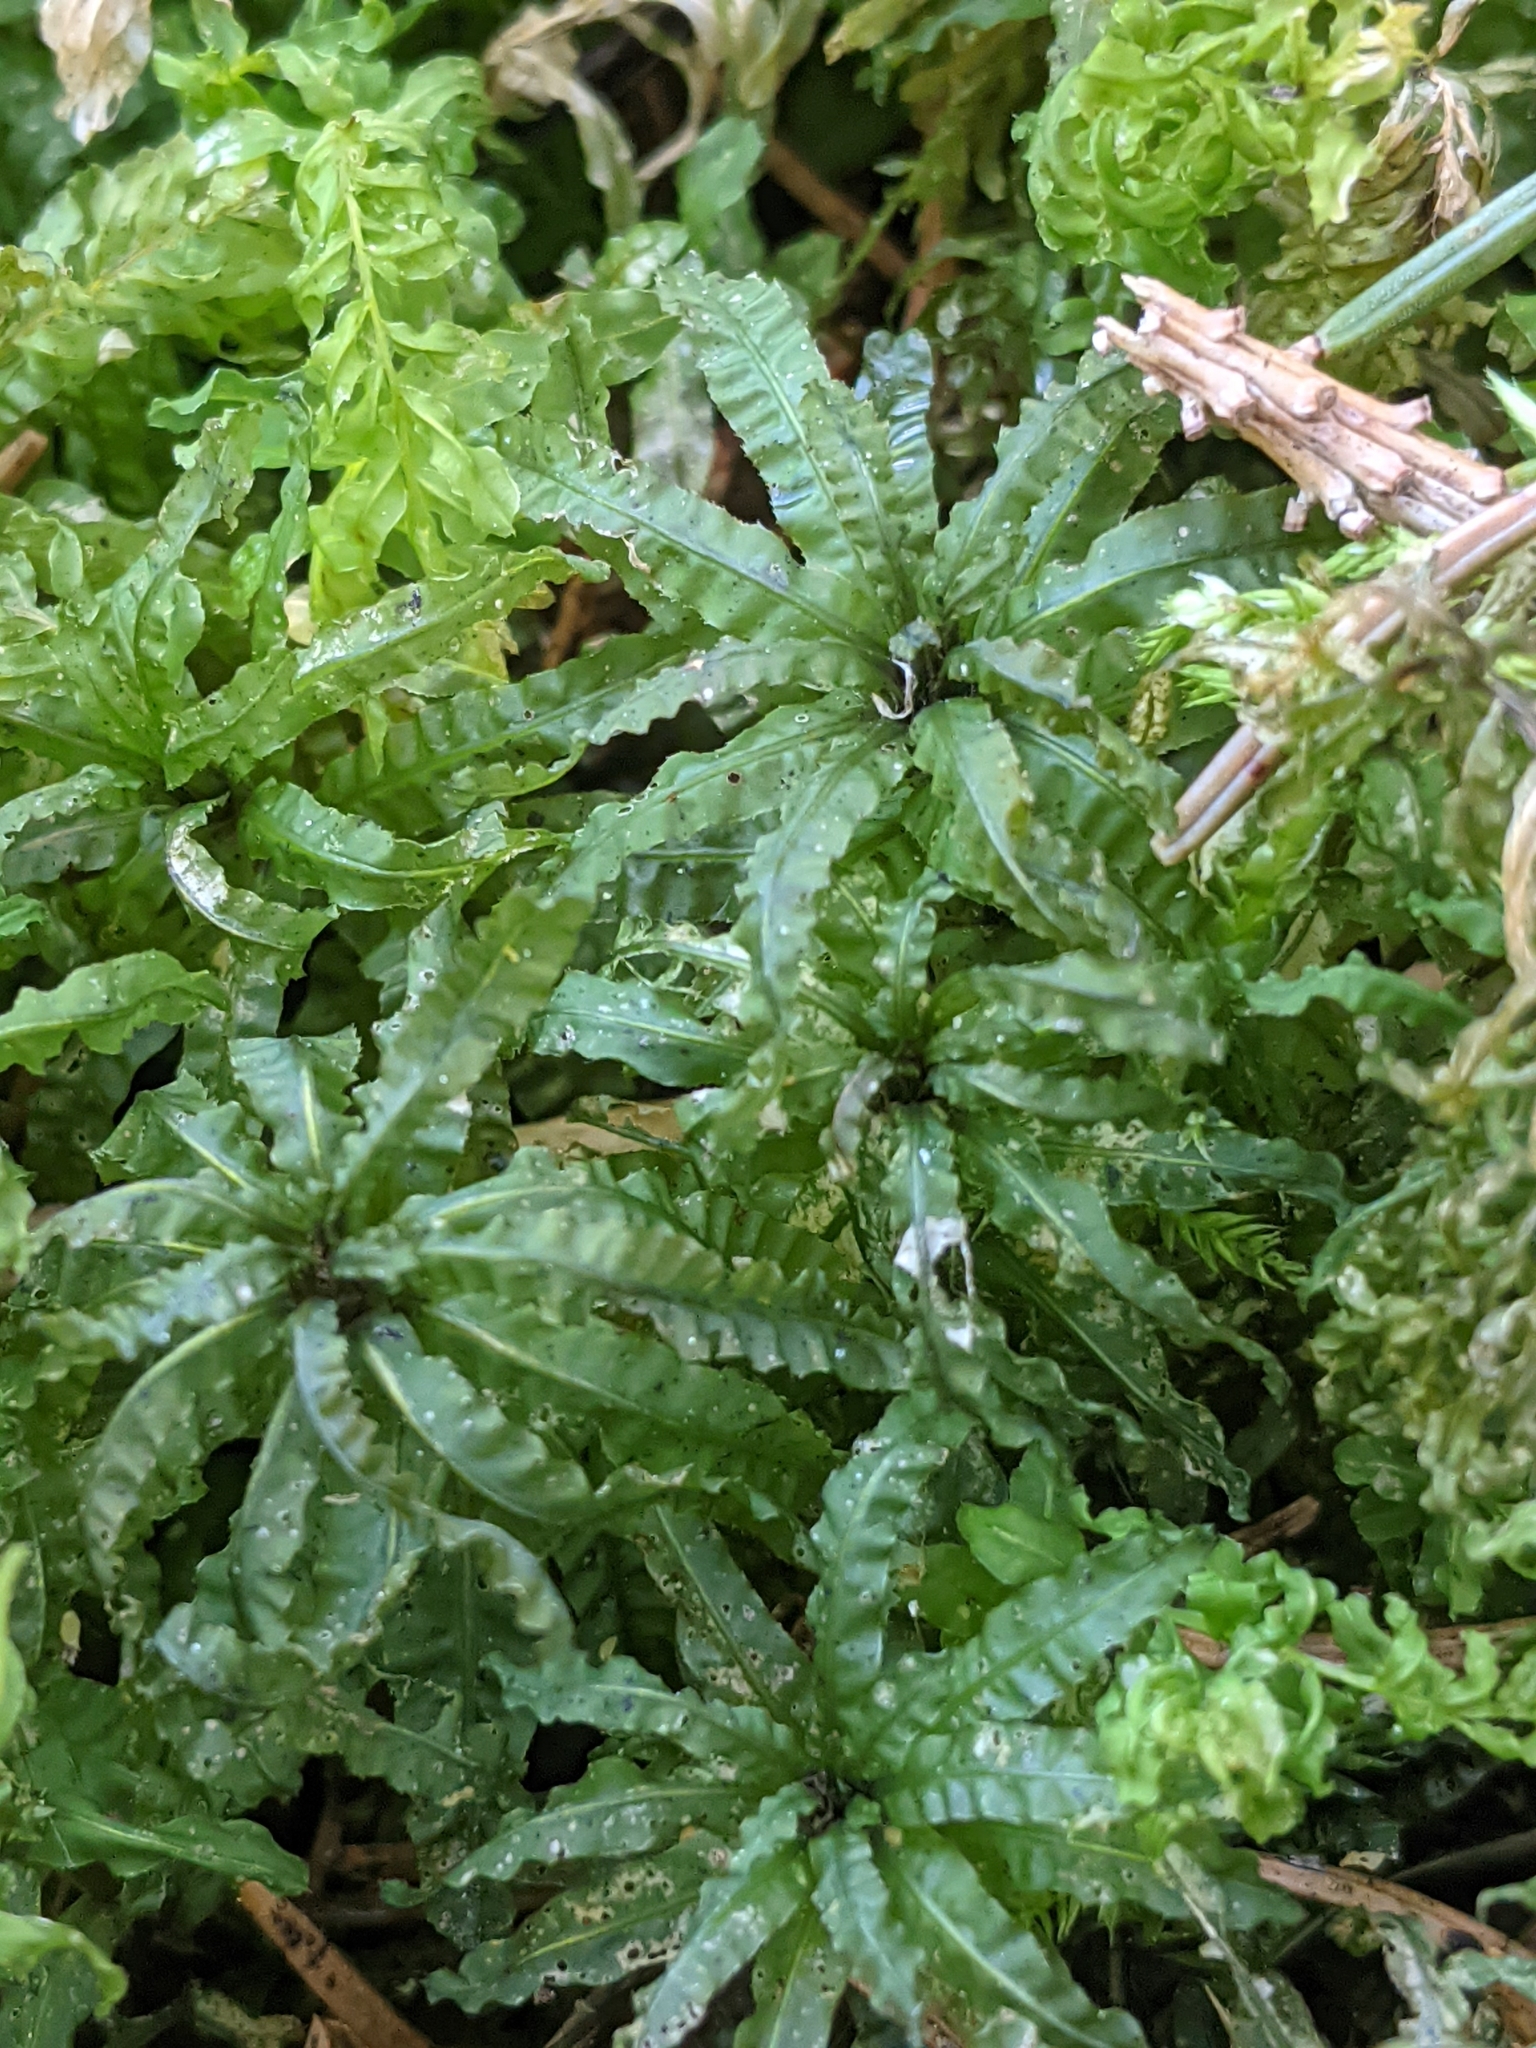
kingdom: Plantae
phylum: Bryophyta
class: Polytrichopsida
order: Polytrichales
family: Polytrichaceae
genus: Atrichum
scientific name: Atrichum undulatum
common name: Common smoothcap
